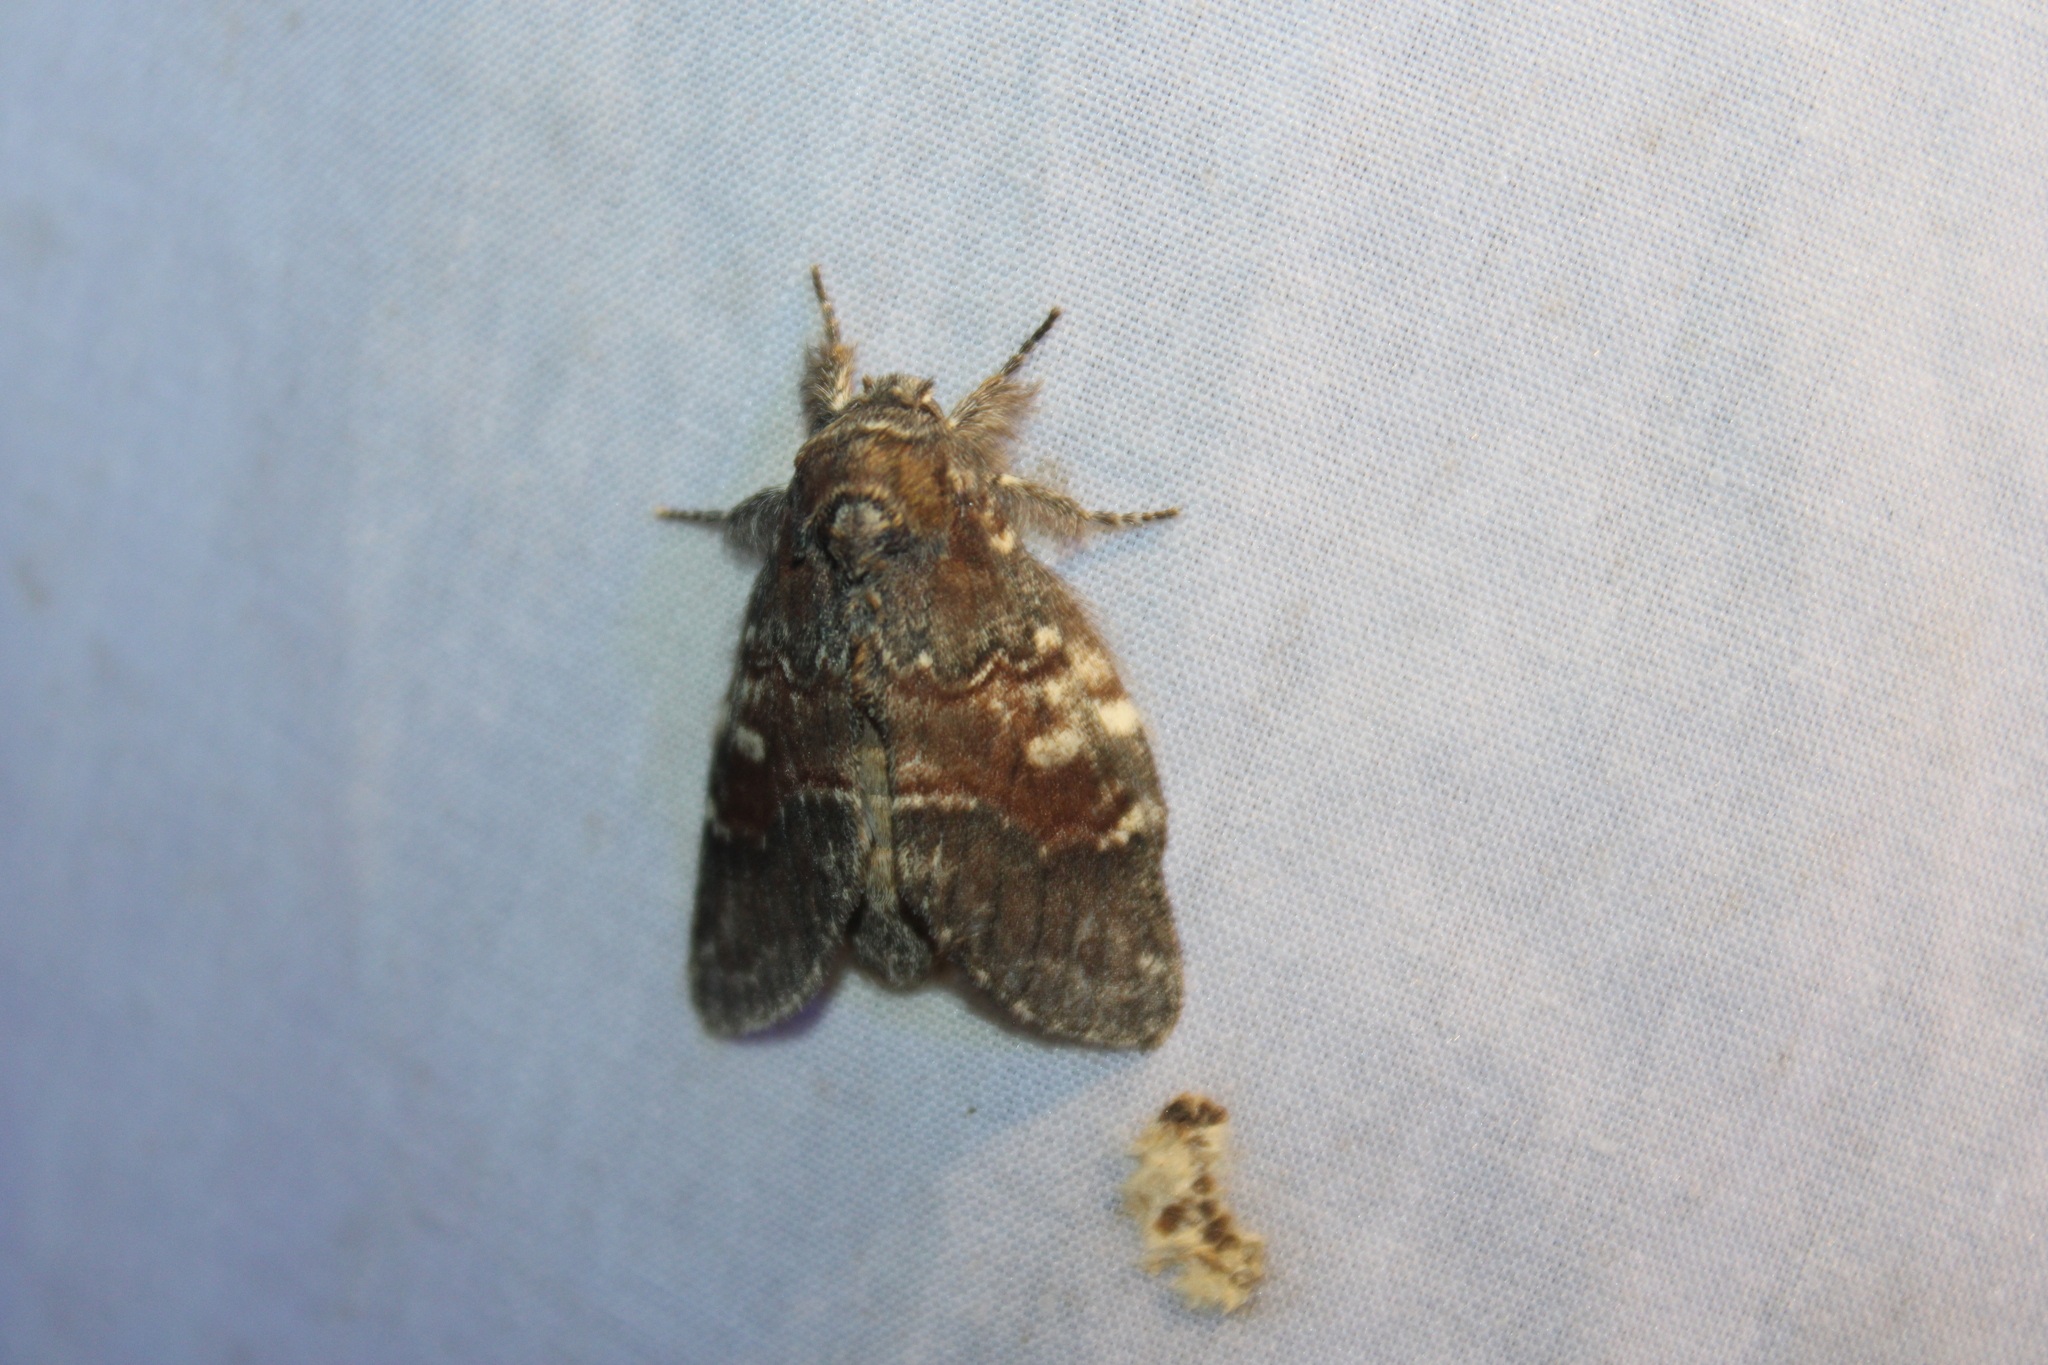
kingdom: Animalia
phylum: Arthropoda
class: Insecta
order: Lepidoptera
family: Notodontidae
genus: Peridea
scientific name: Peridea ferruginea
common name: Chocolate prominent
